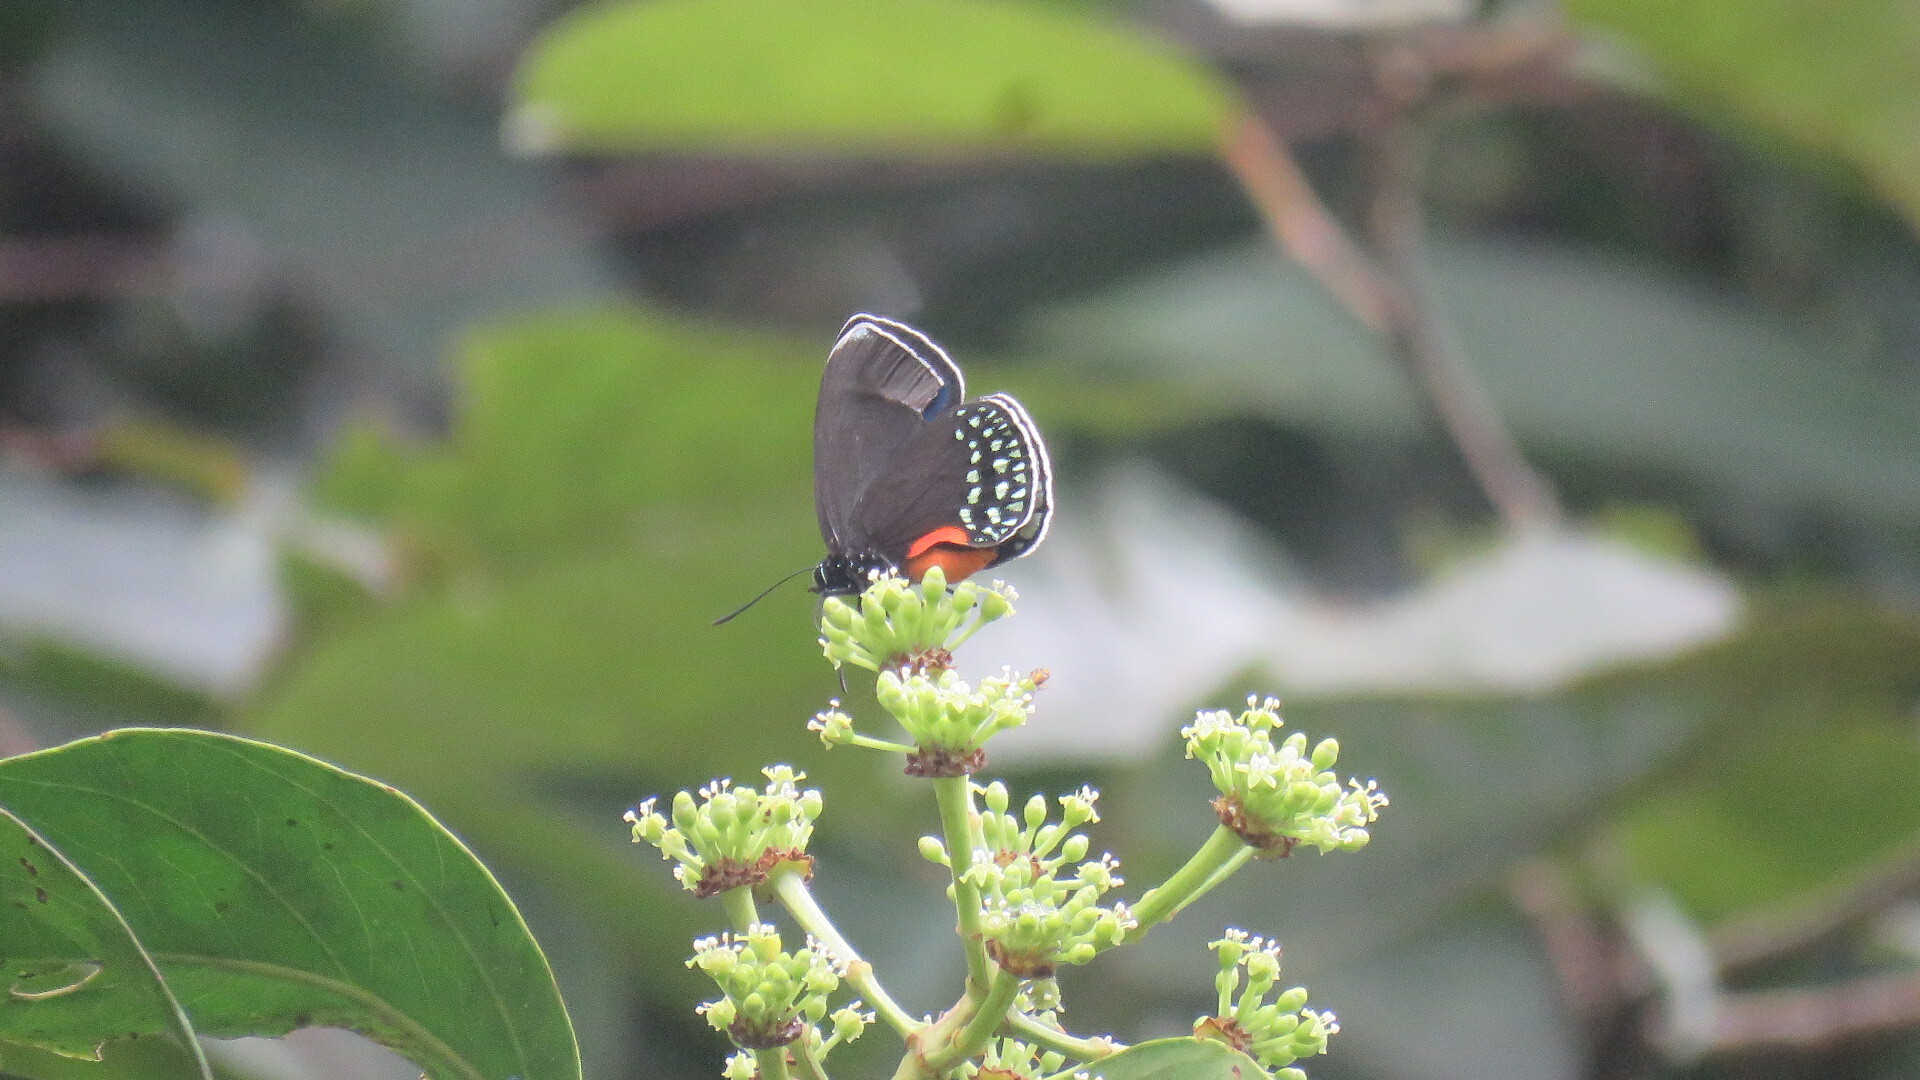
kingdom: Animalia
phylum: Arthropoda
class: Insecta
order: Lepidoptera
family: Lycaenidae
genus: Eumaeus
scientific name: Eumaeus godartii
